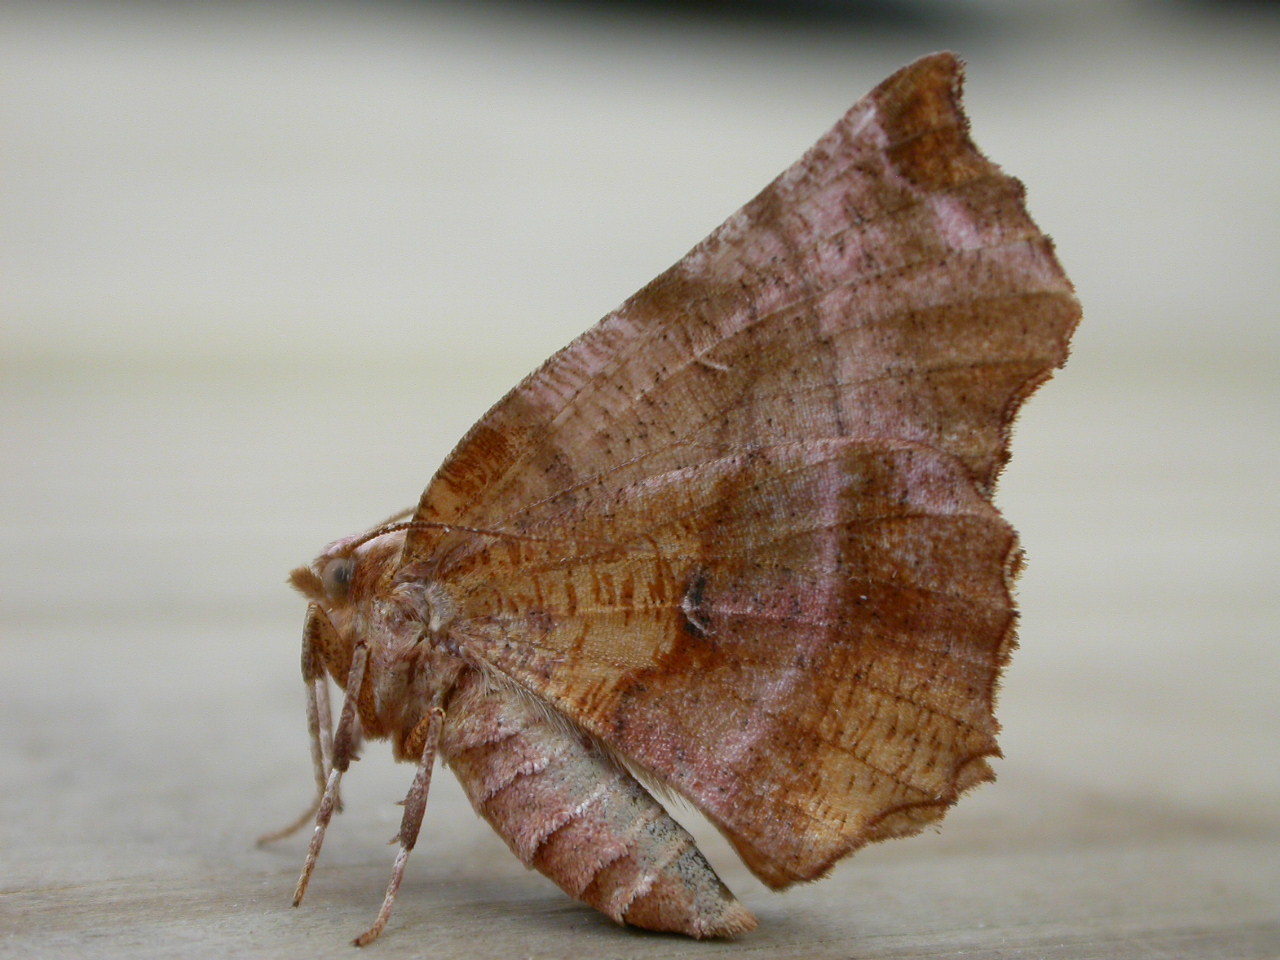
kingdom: Animalia
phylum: Arthropoda
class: Insecta
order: Lepidoptera
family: Geometridae
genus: Selenia
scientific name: Selenia dentaria
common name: Early thorn
